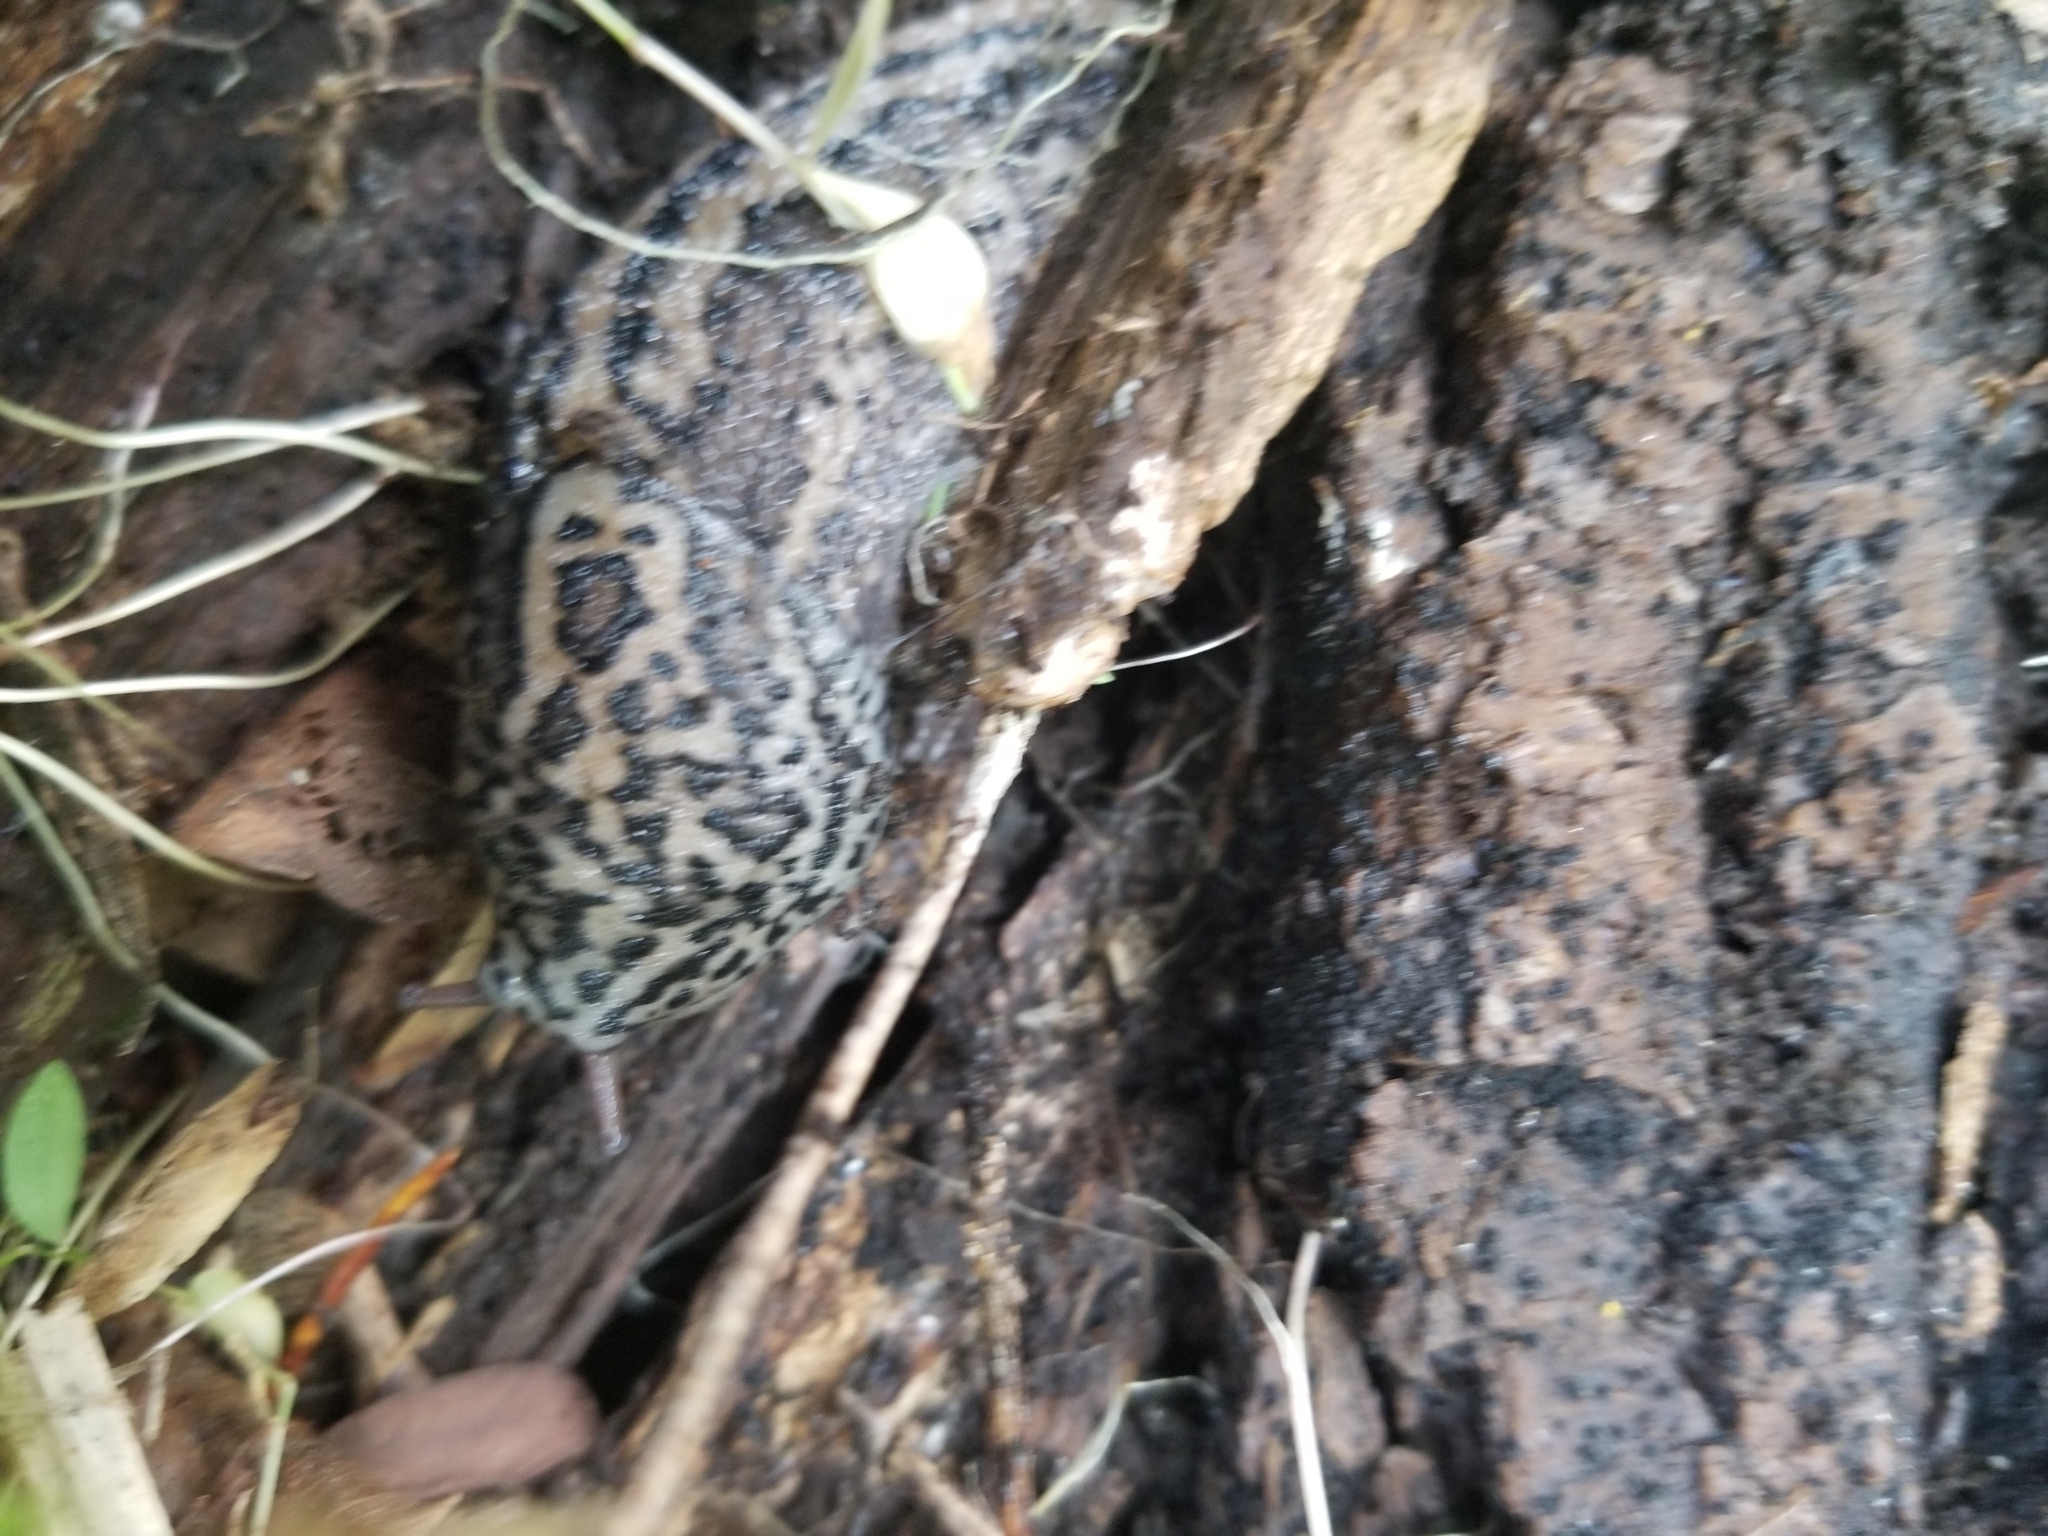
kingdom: Animalia
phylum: Mollusca
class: Gastropoda
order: Stylommatophora
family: Limacidae
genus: Limax
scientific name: Limax maximus
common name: Great grey slug
